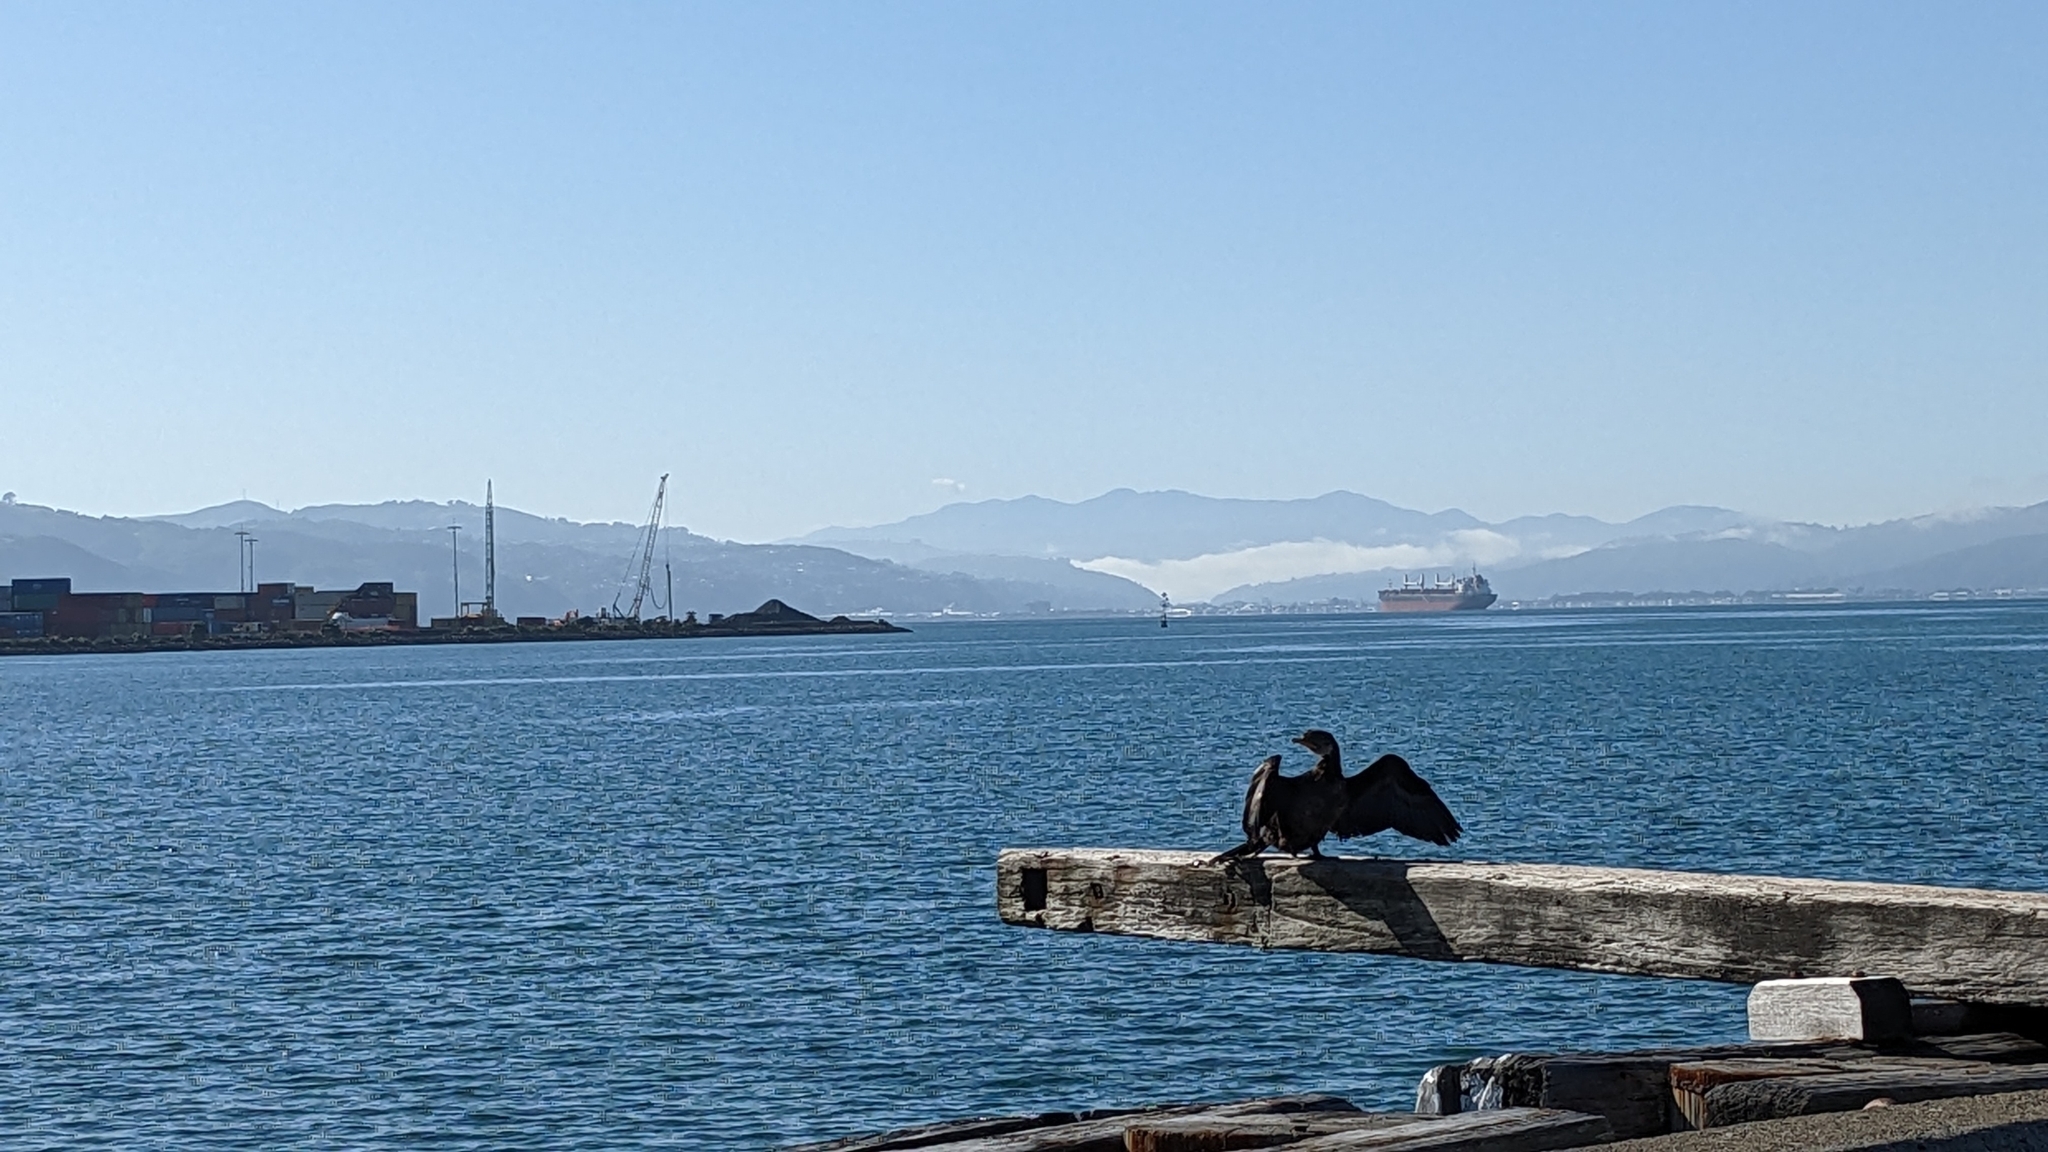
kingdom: Animalia
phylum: Chordata
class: Aves
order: Suliformes
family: Phalacrocoracidae
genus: Microcarbo
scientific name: Microcarbo melanoleucos
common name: Little pied cormorant
